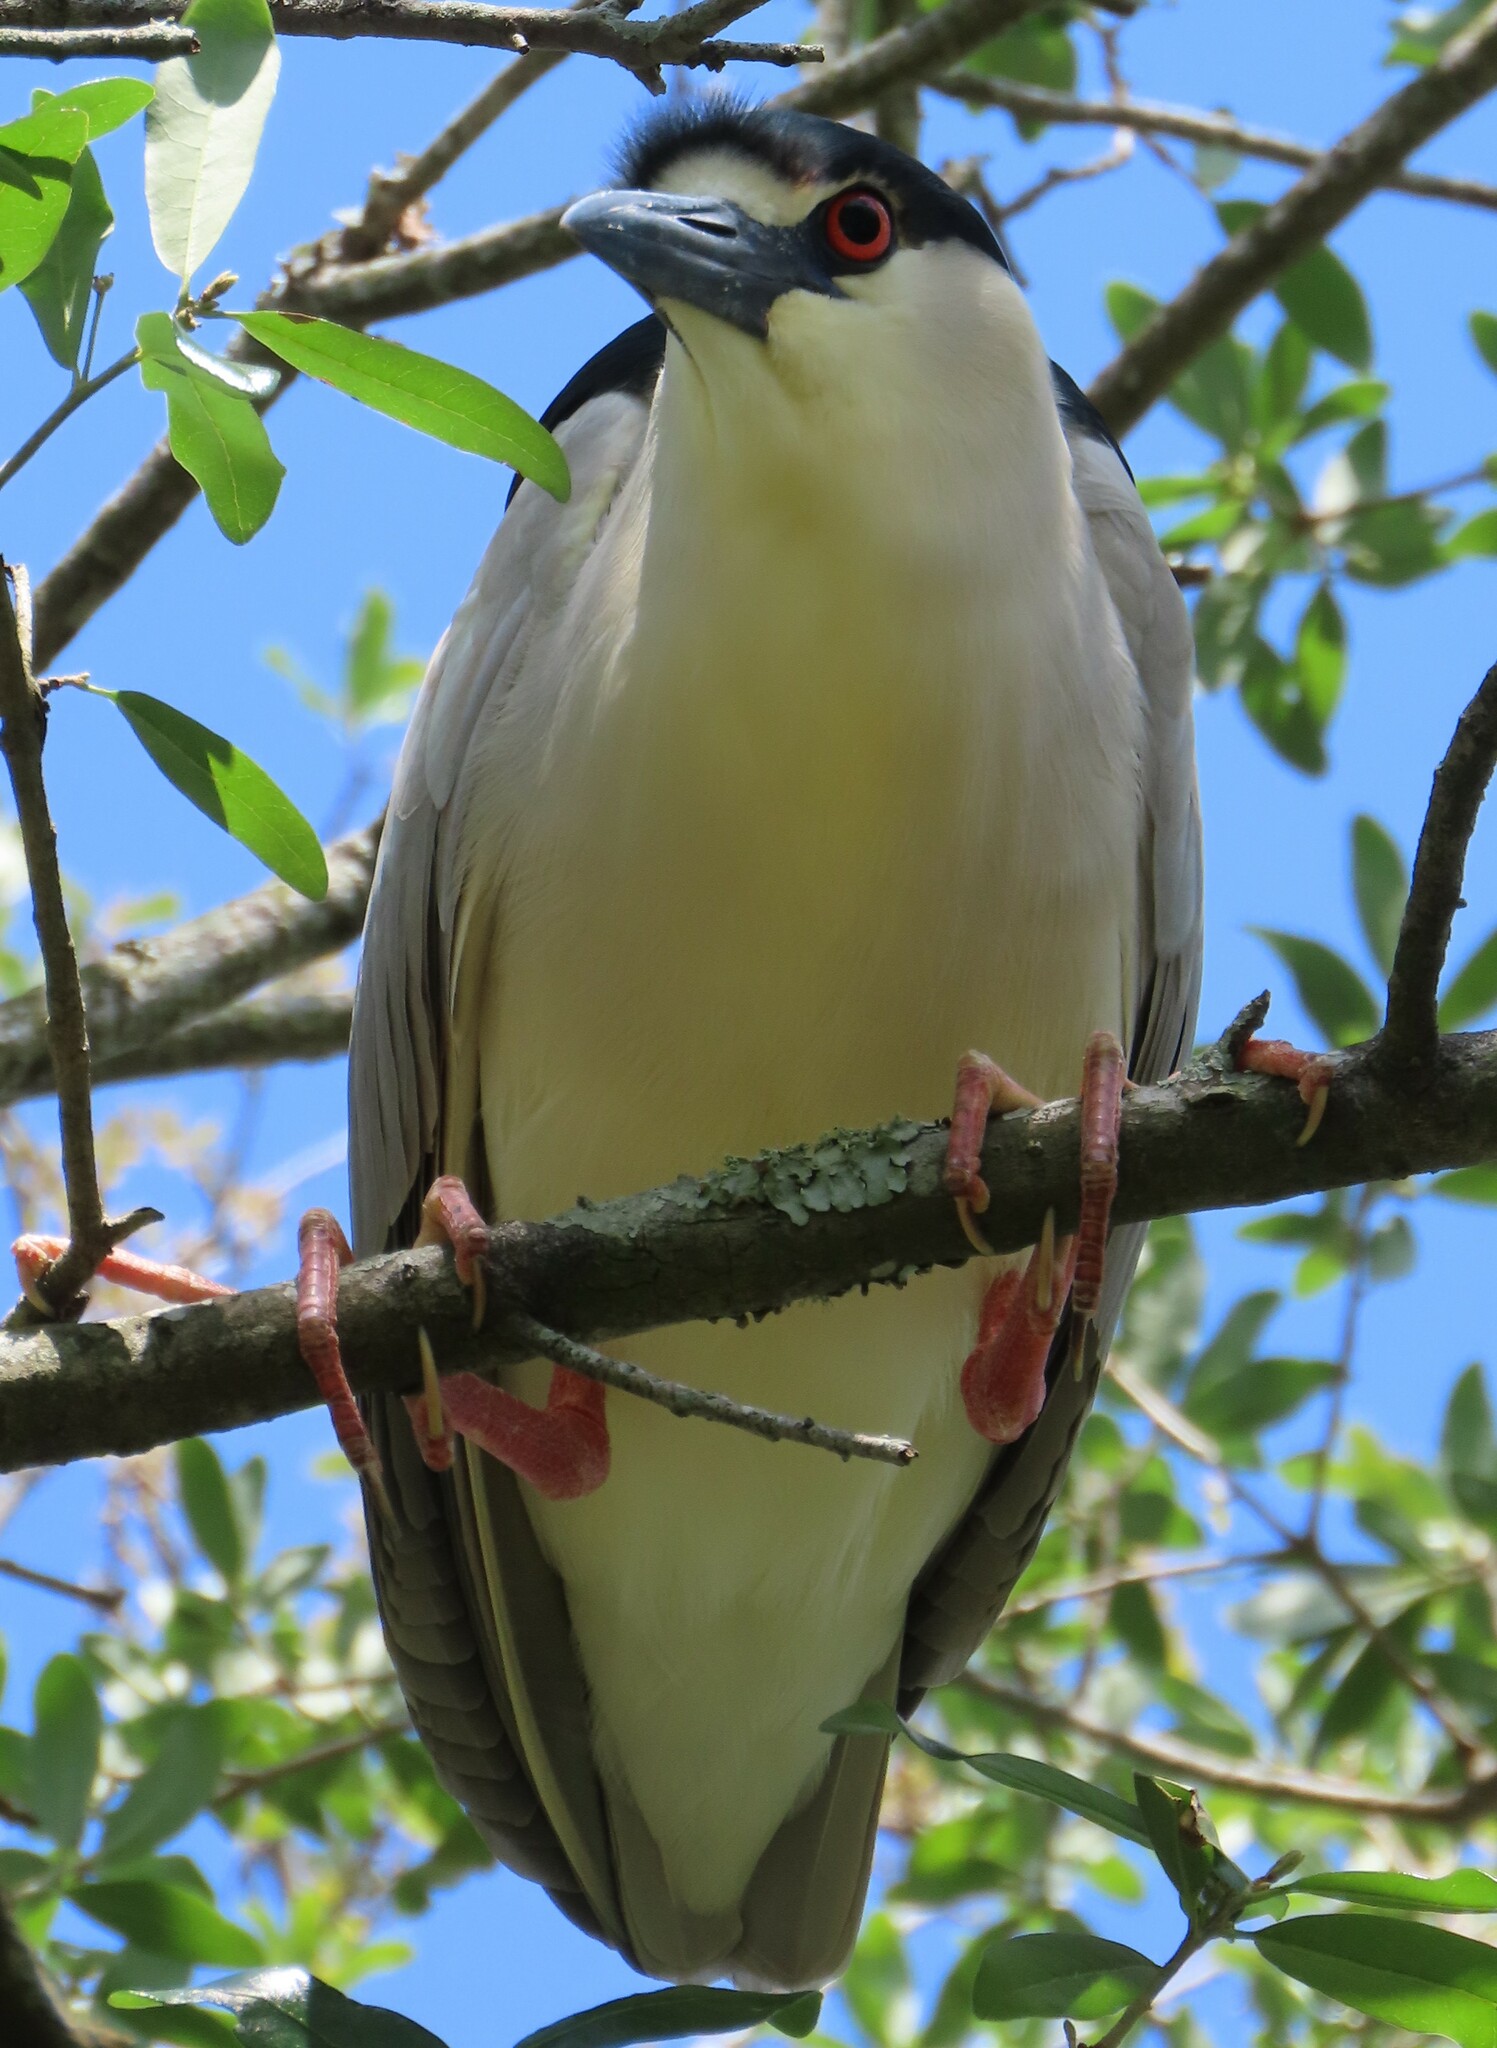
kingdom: Animalia
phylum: Chordata
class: Aves
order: Pelecaniformes
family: Ardeidae
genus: Nycticorax
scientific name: Nycticorax nycticorax
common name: Black-crowned night heron
